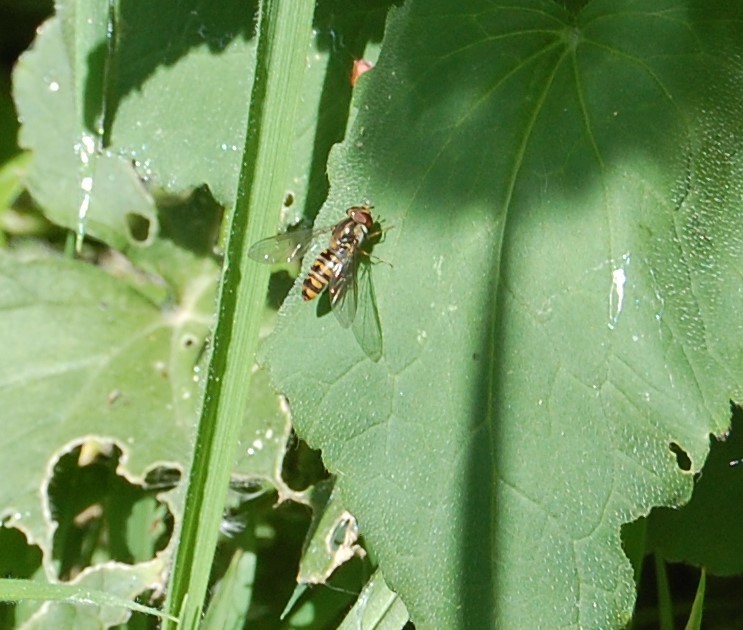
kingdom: Animalia
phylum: Arthropoda
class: Insecta
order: Diptera
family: Syrphidae
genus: Episyrphus
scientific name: Episyrphus balteatus
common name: Marmalade hoverfly
